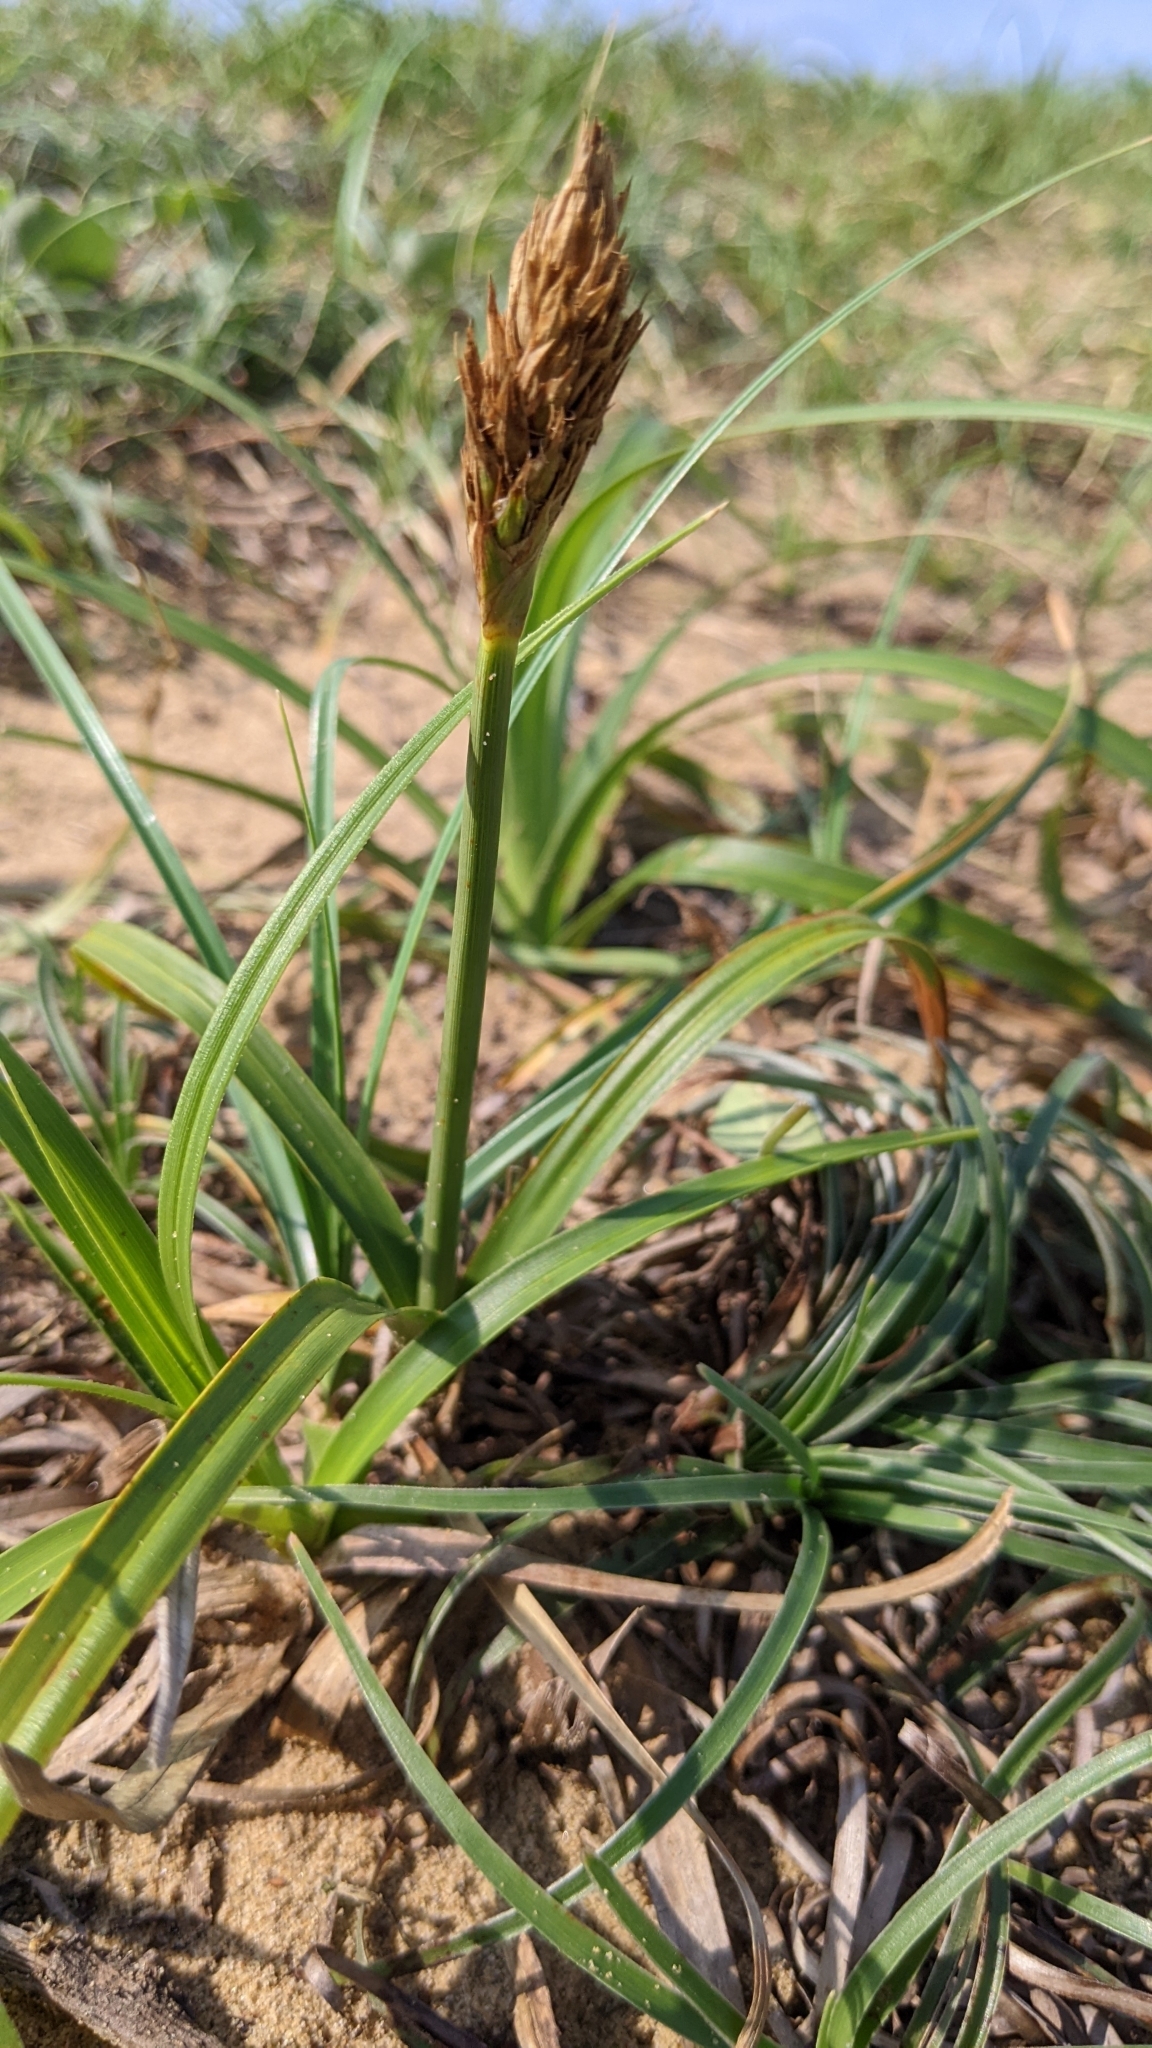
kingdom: Plantae
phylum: Tracheophyta
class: Liliopsida
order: Poales
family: Cyperaceae
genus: Carex
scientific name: Carex kobomugi
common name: Japanese sedge
